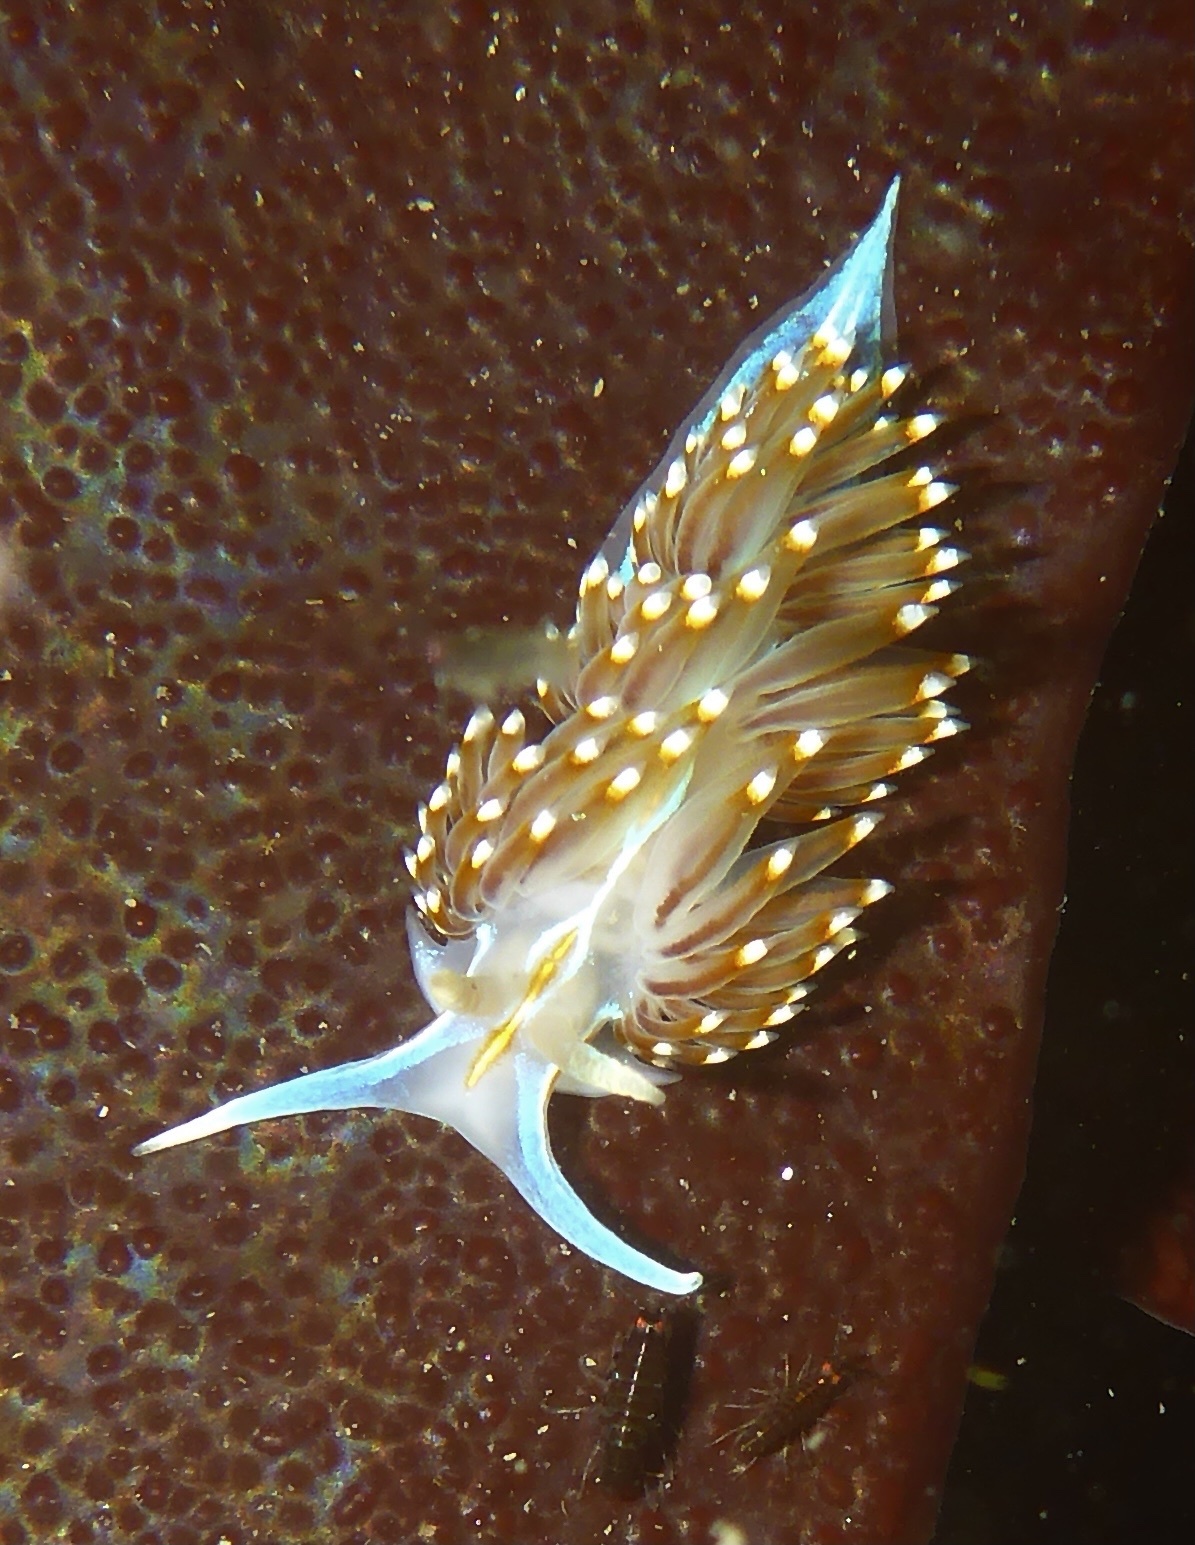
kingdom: Animalia
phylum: Mollusca
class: Gastropoda
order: Nudibranchia
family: Myrrhinidae
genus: Hermissenda
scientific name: Hermissenda opalescens
